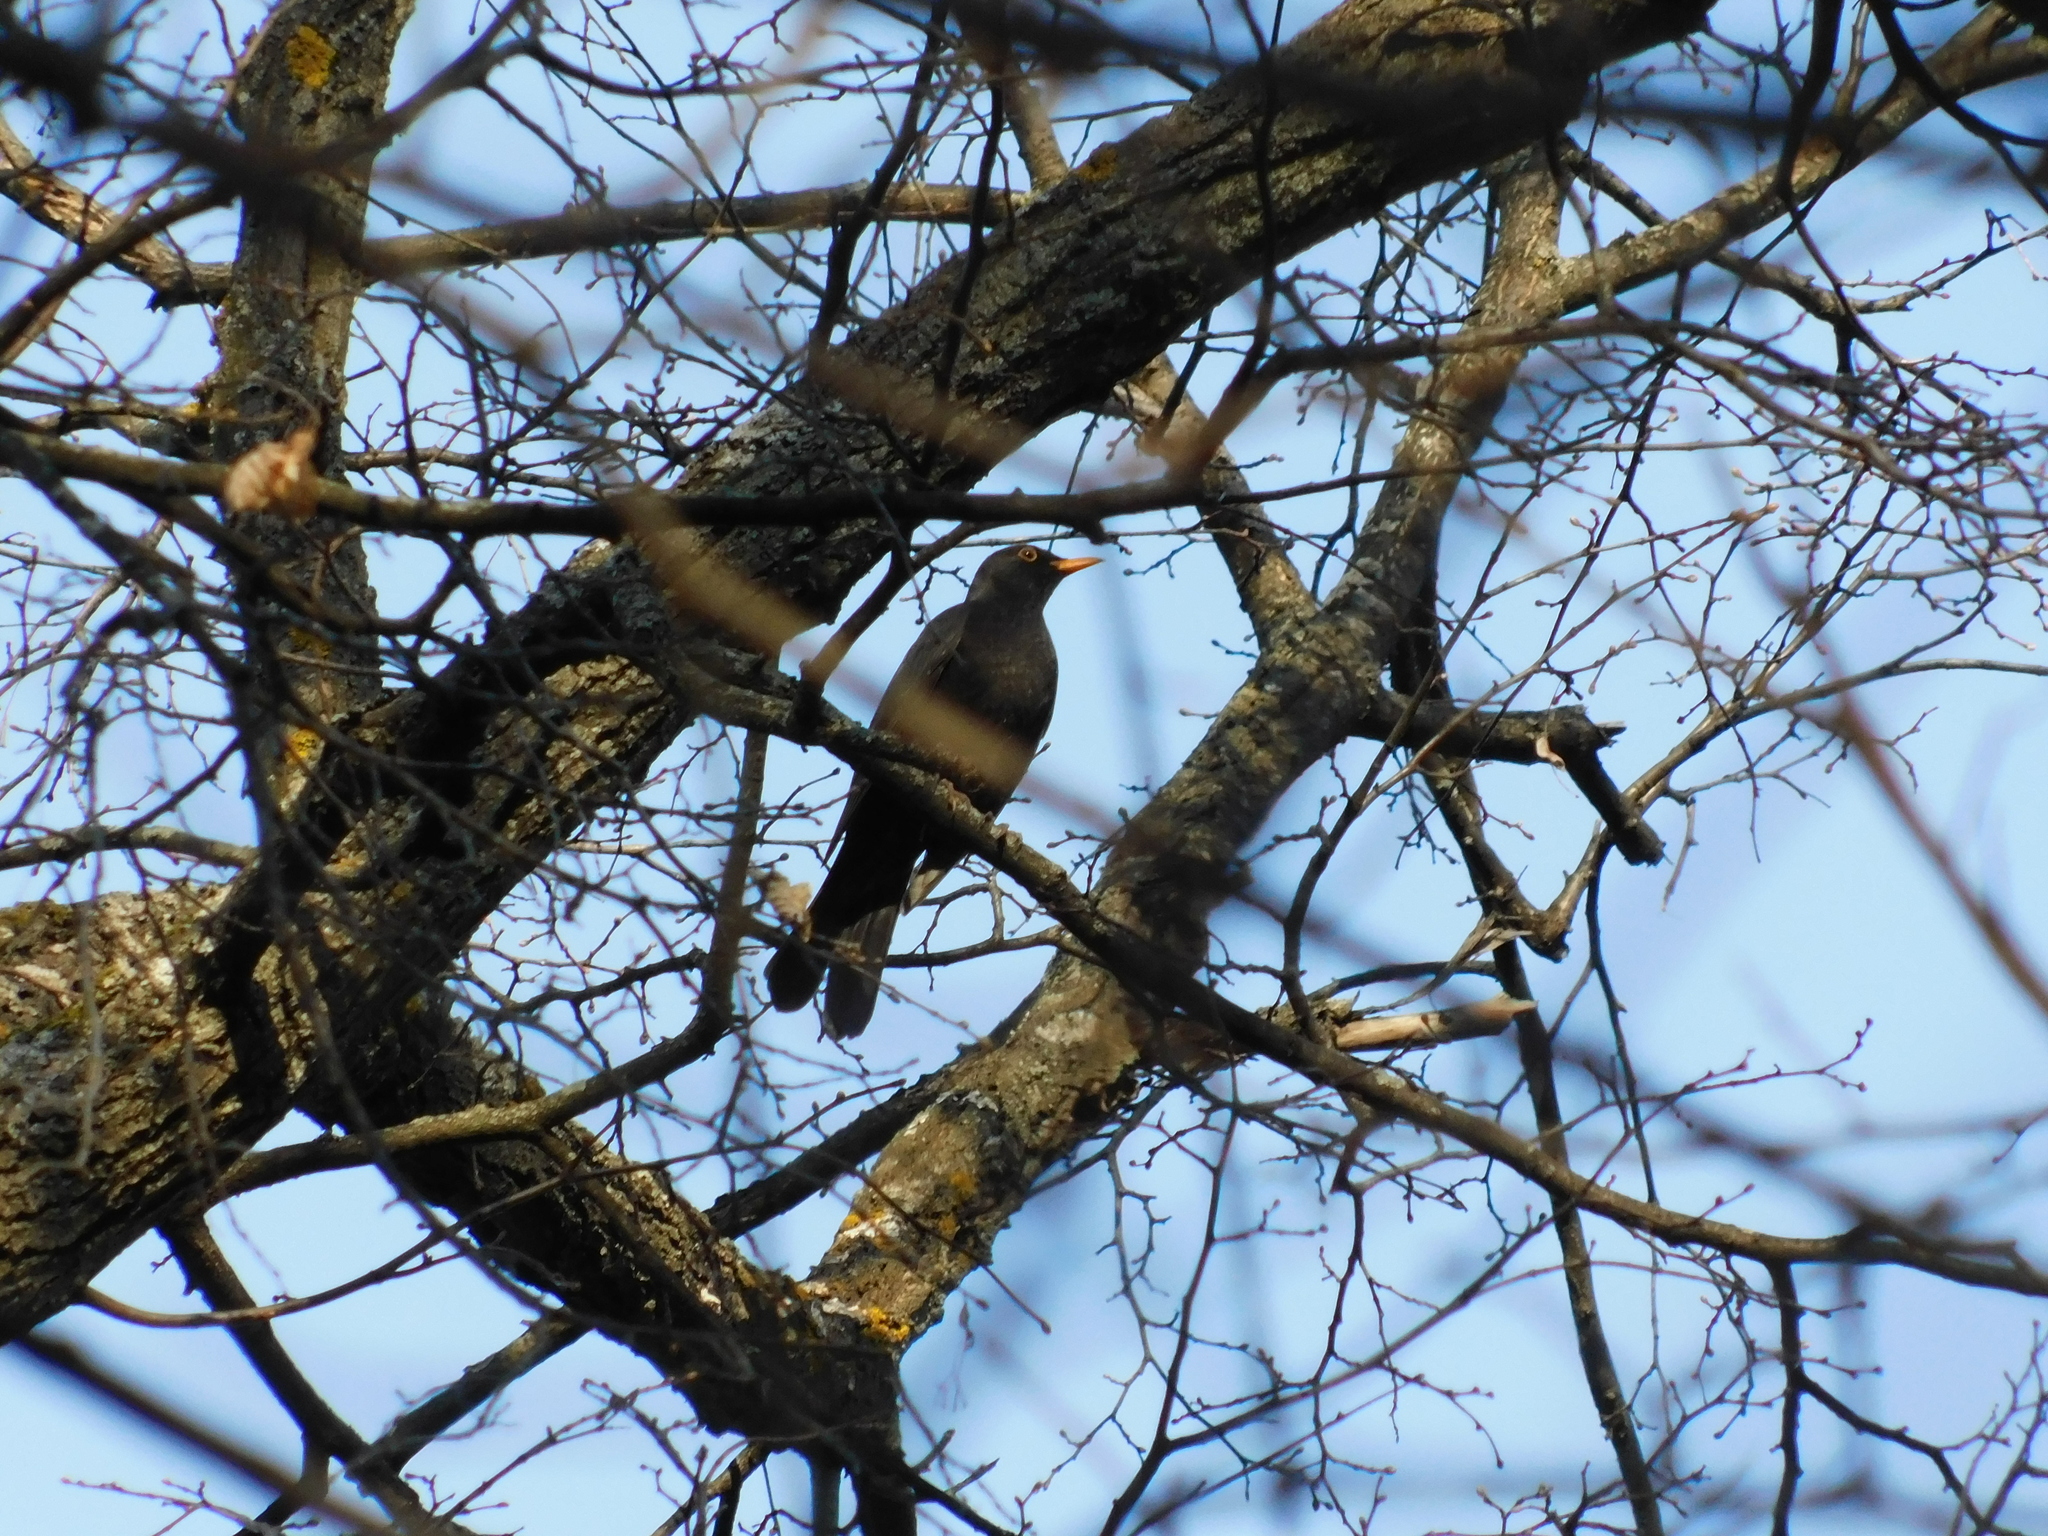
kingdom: Animalia
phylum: Chordata
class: Aves
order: Passeriformes
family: Turdidae
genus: Turdus
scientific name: Turdus merula
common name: Common blackbird
